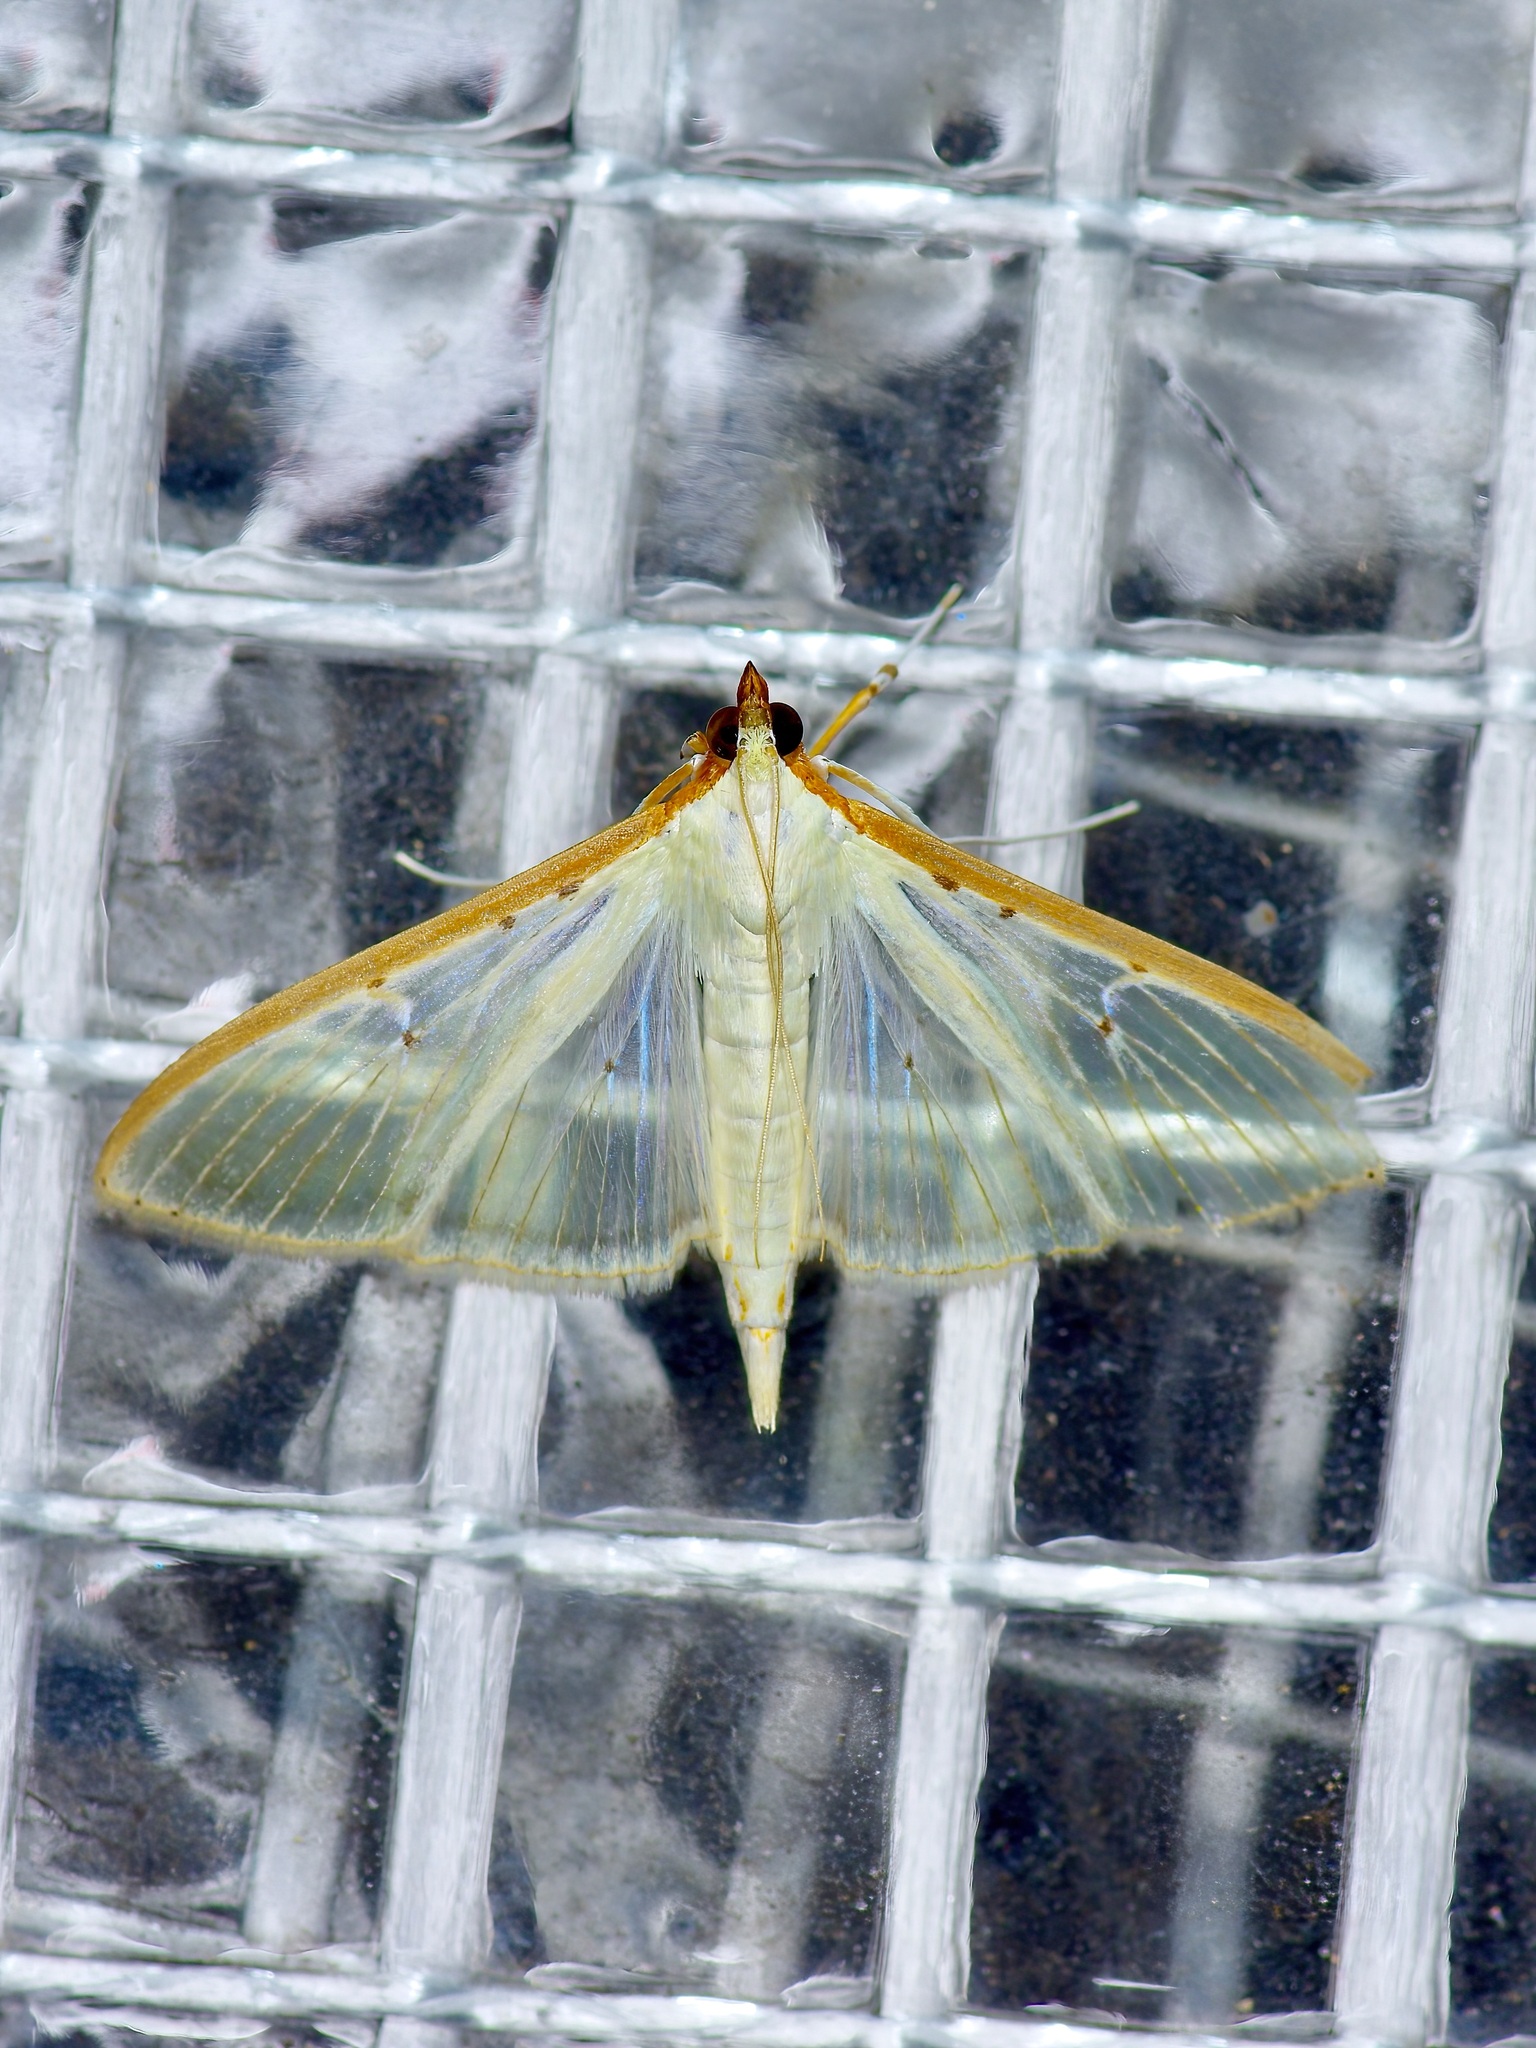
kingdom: Animalia
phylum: Arthropoda
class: Insecta
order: Lepidoptera
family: Crambidae
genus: Palpita
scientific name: Palpita quadristigmalis
